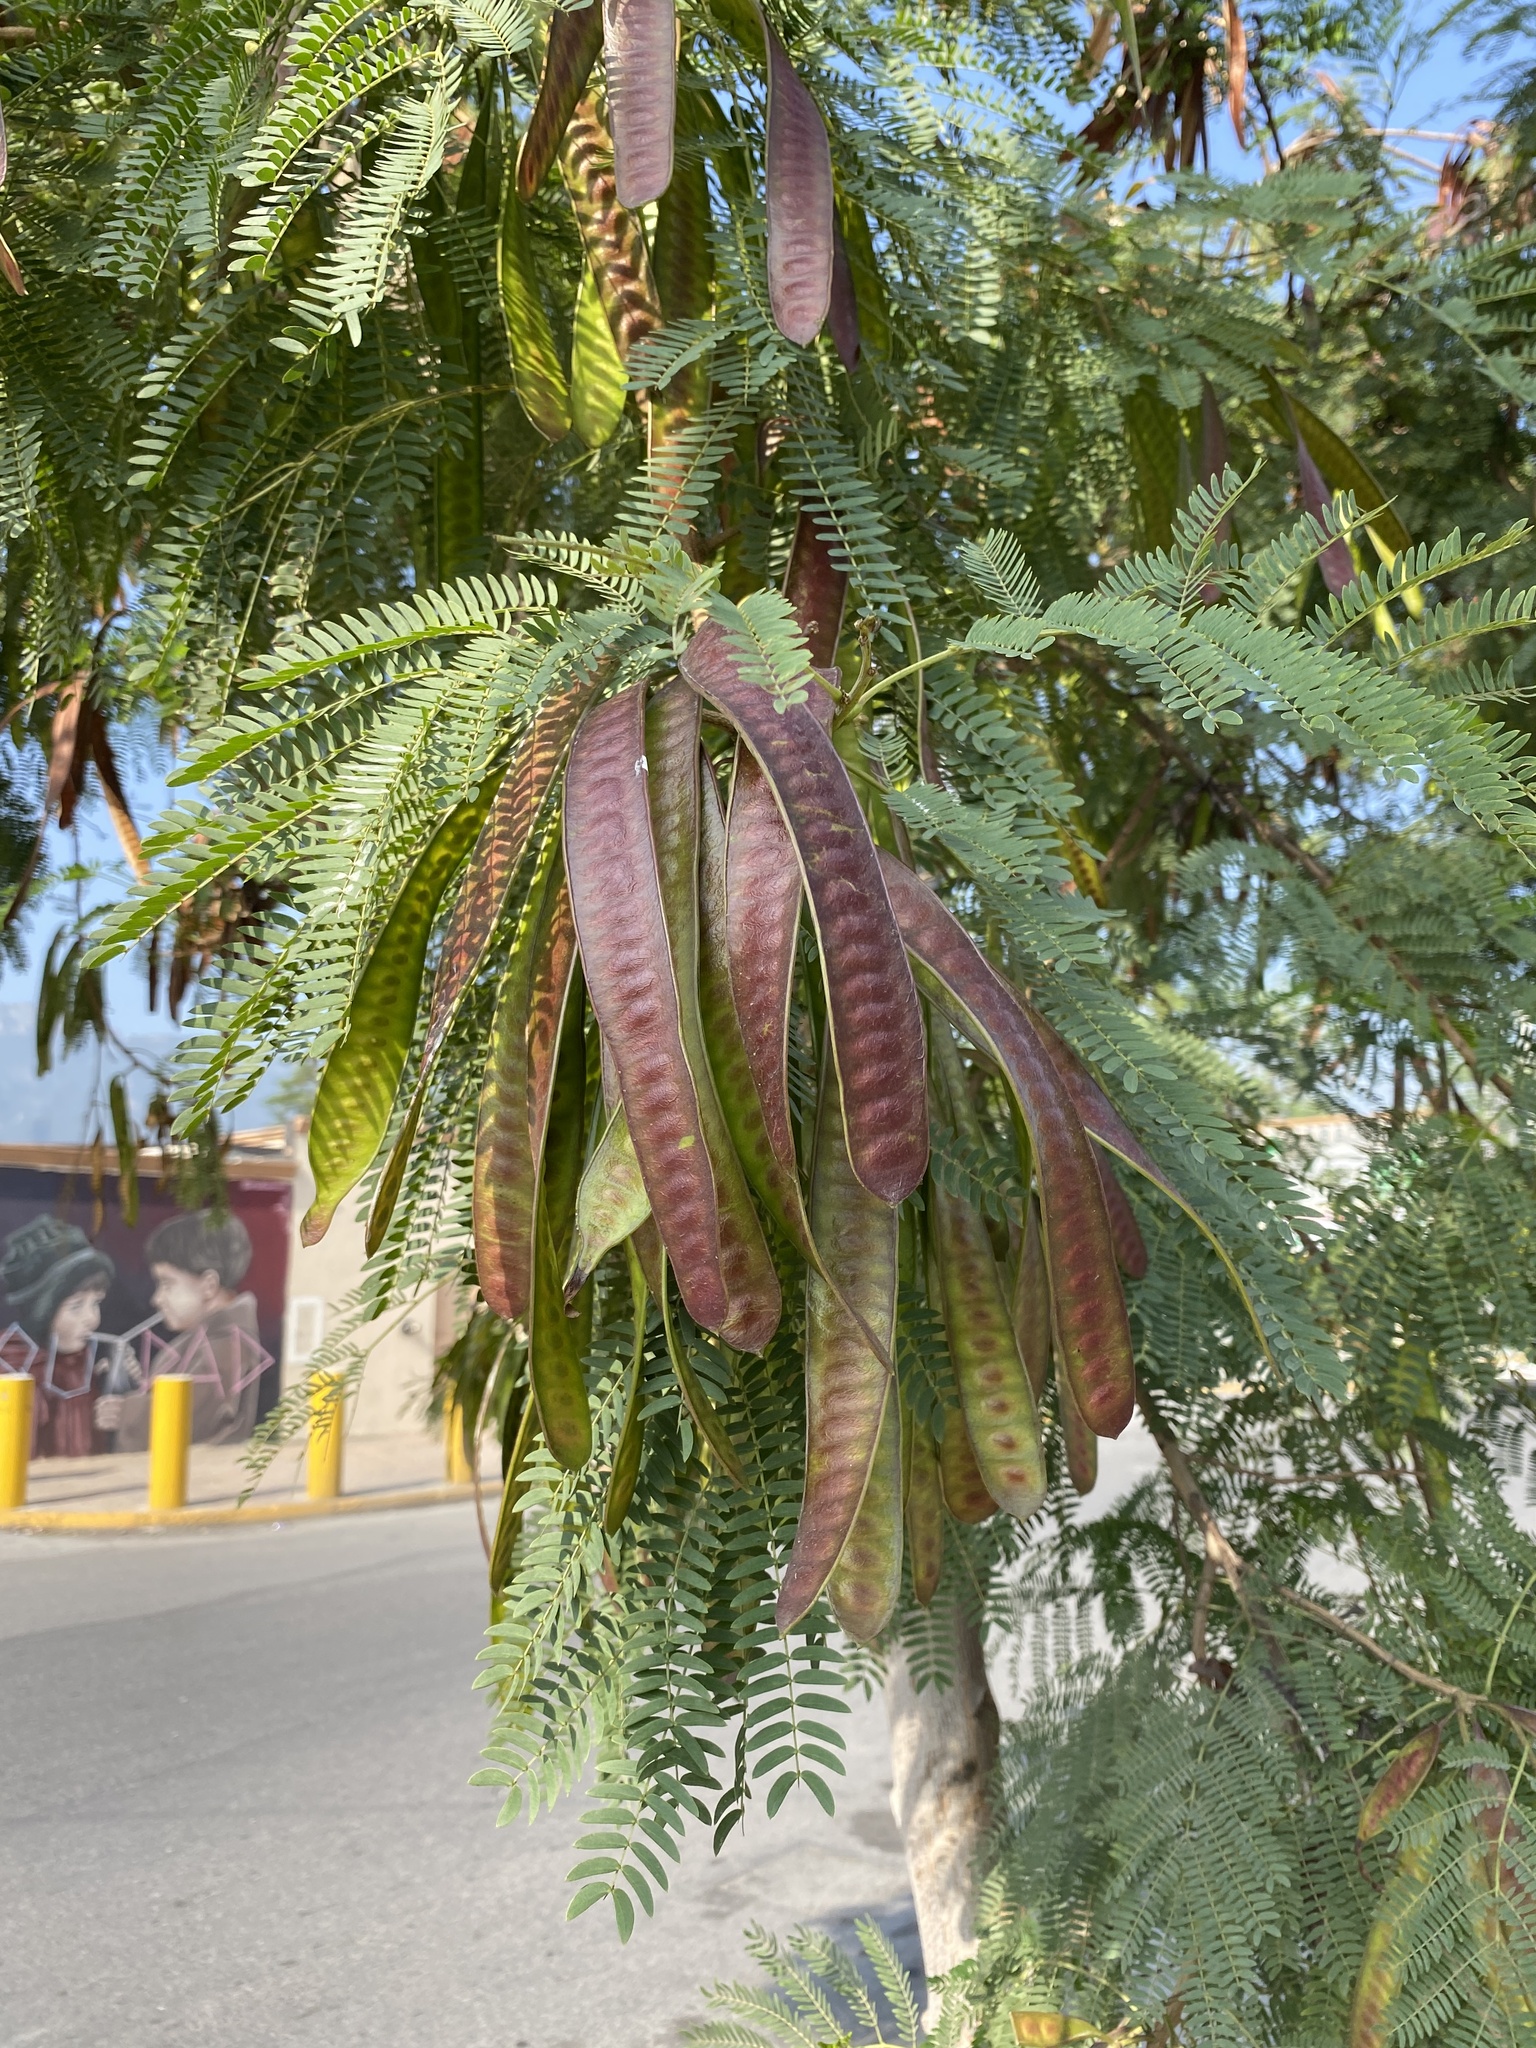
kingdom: Plantae
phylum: Tracheophyta
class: Magnoliopsida
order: Fabales
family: Fabaceae
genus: Leucaena
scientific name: Leucaena leucocephala
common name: White leadtree
